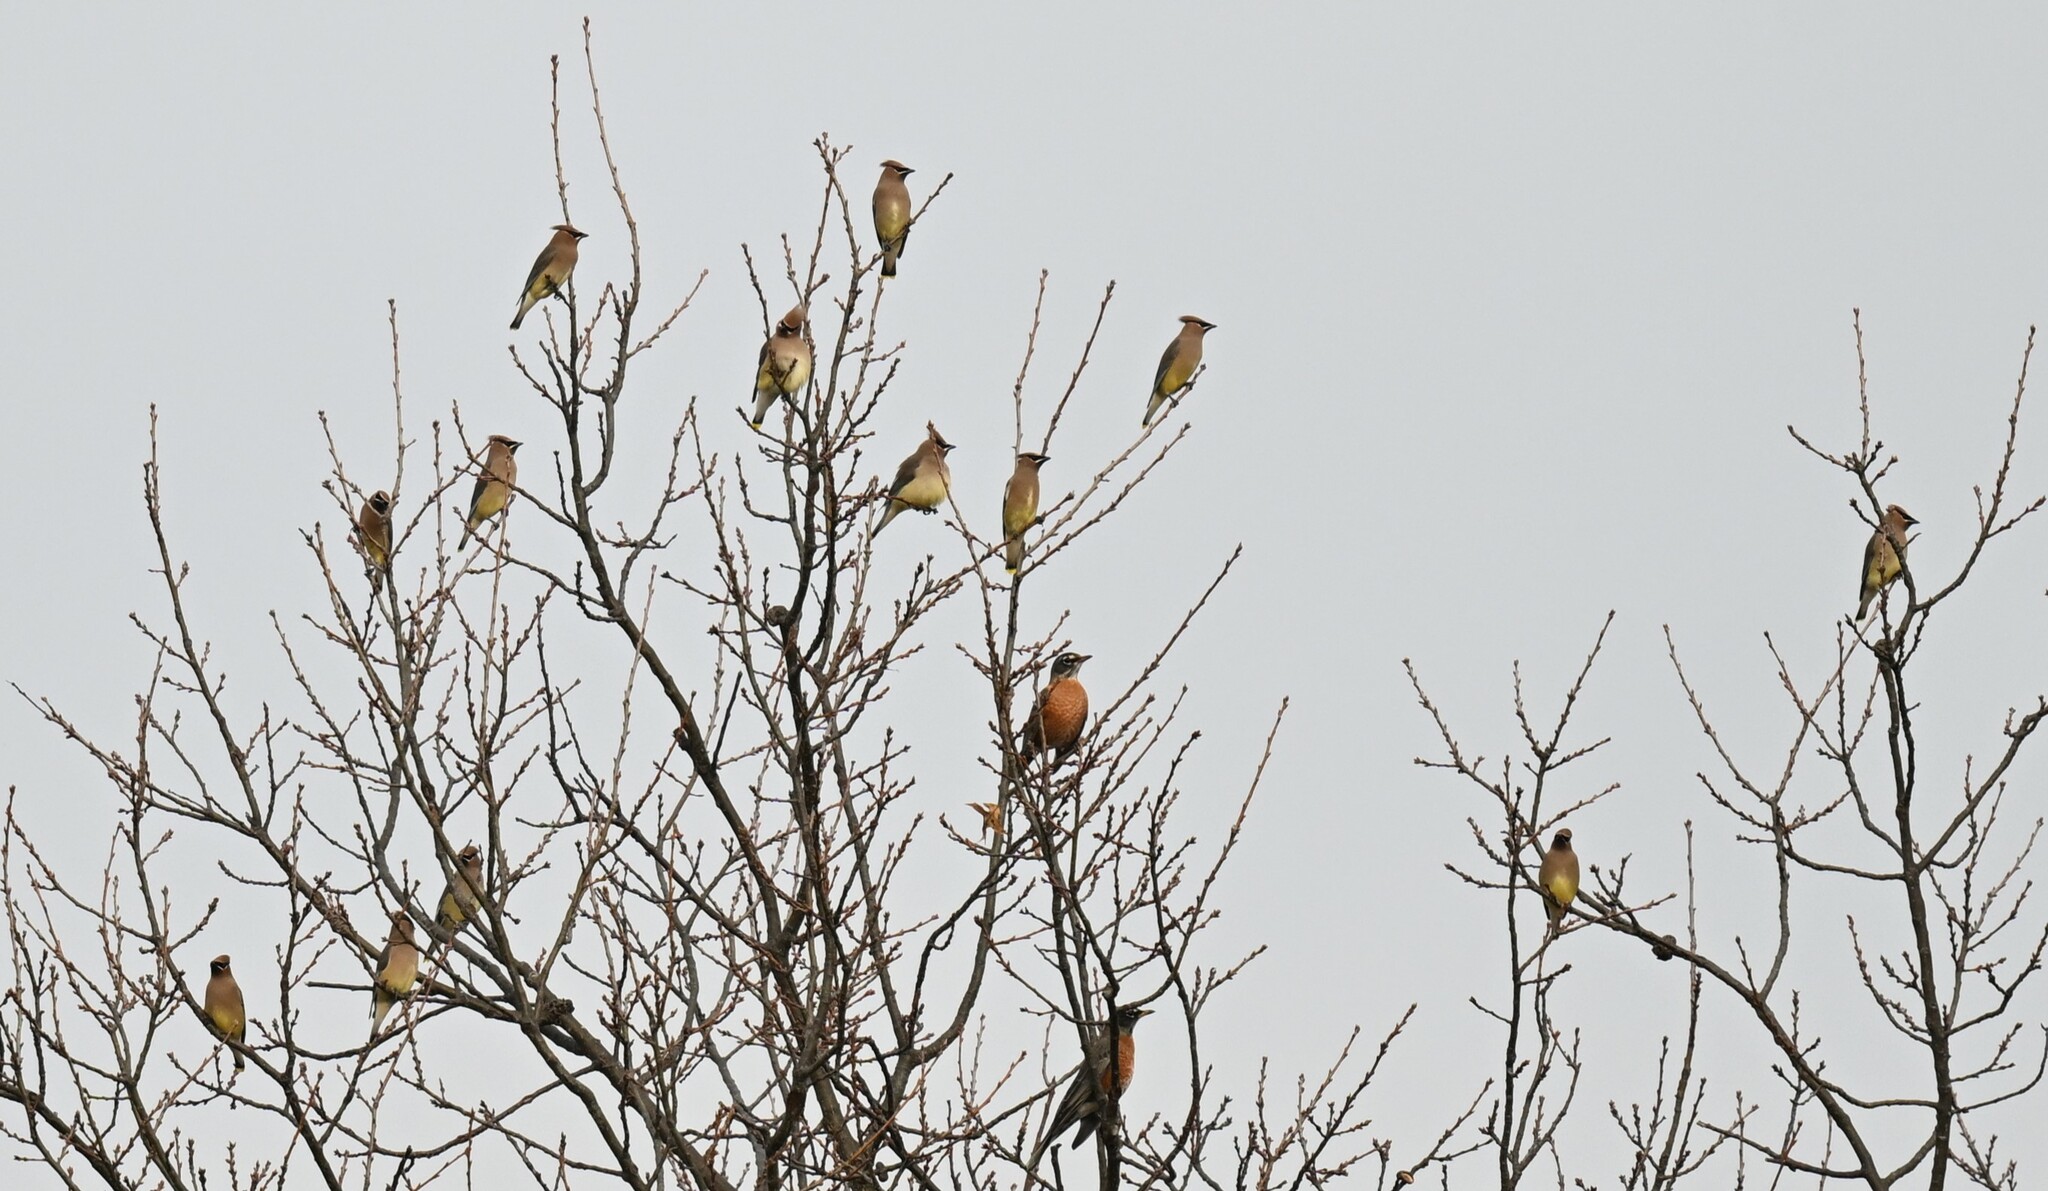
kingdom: Animalia
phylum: Chordata
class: Aves
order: Passeriformes
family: Bombycillidae
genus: Bombycilla
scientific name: Bombycilla cedrorum
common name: Cedar waxwing
